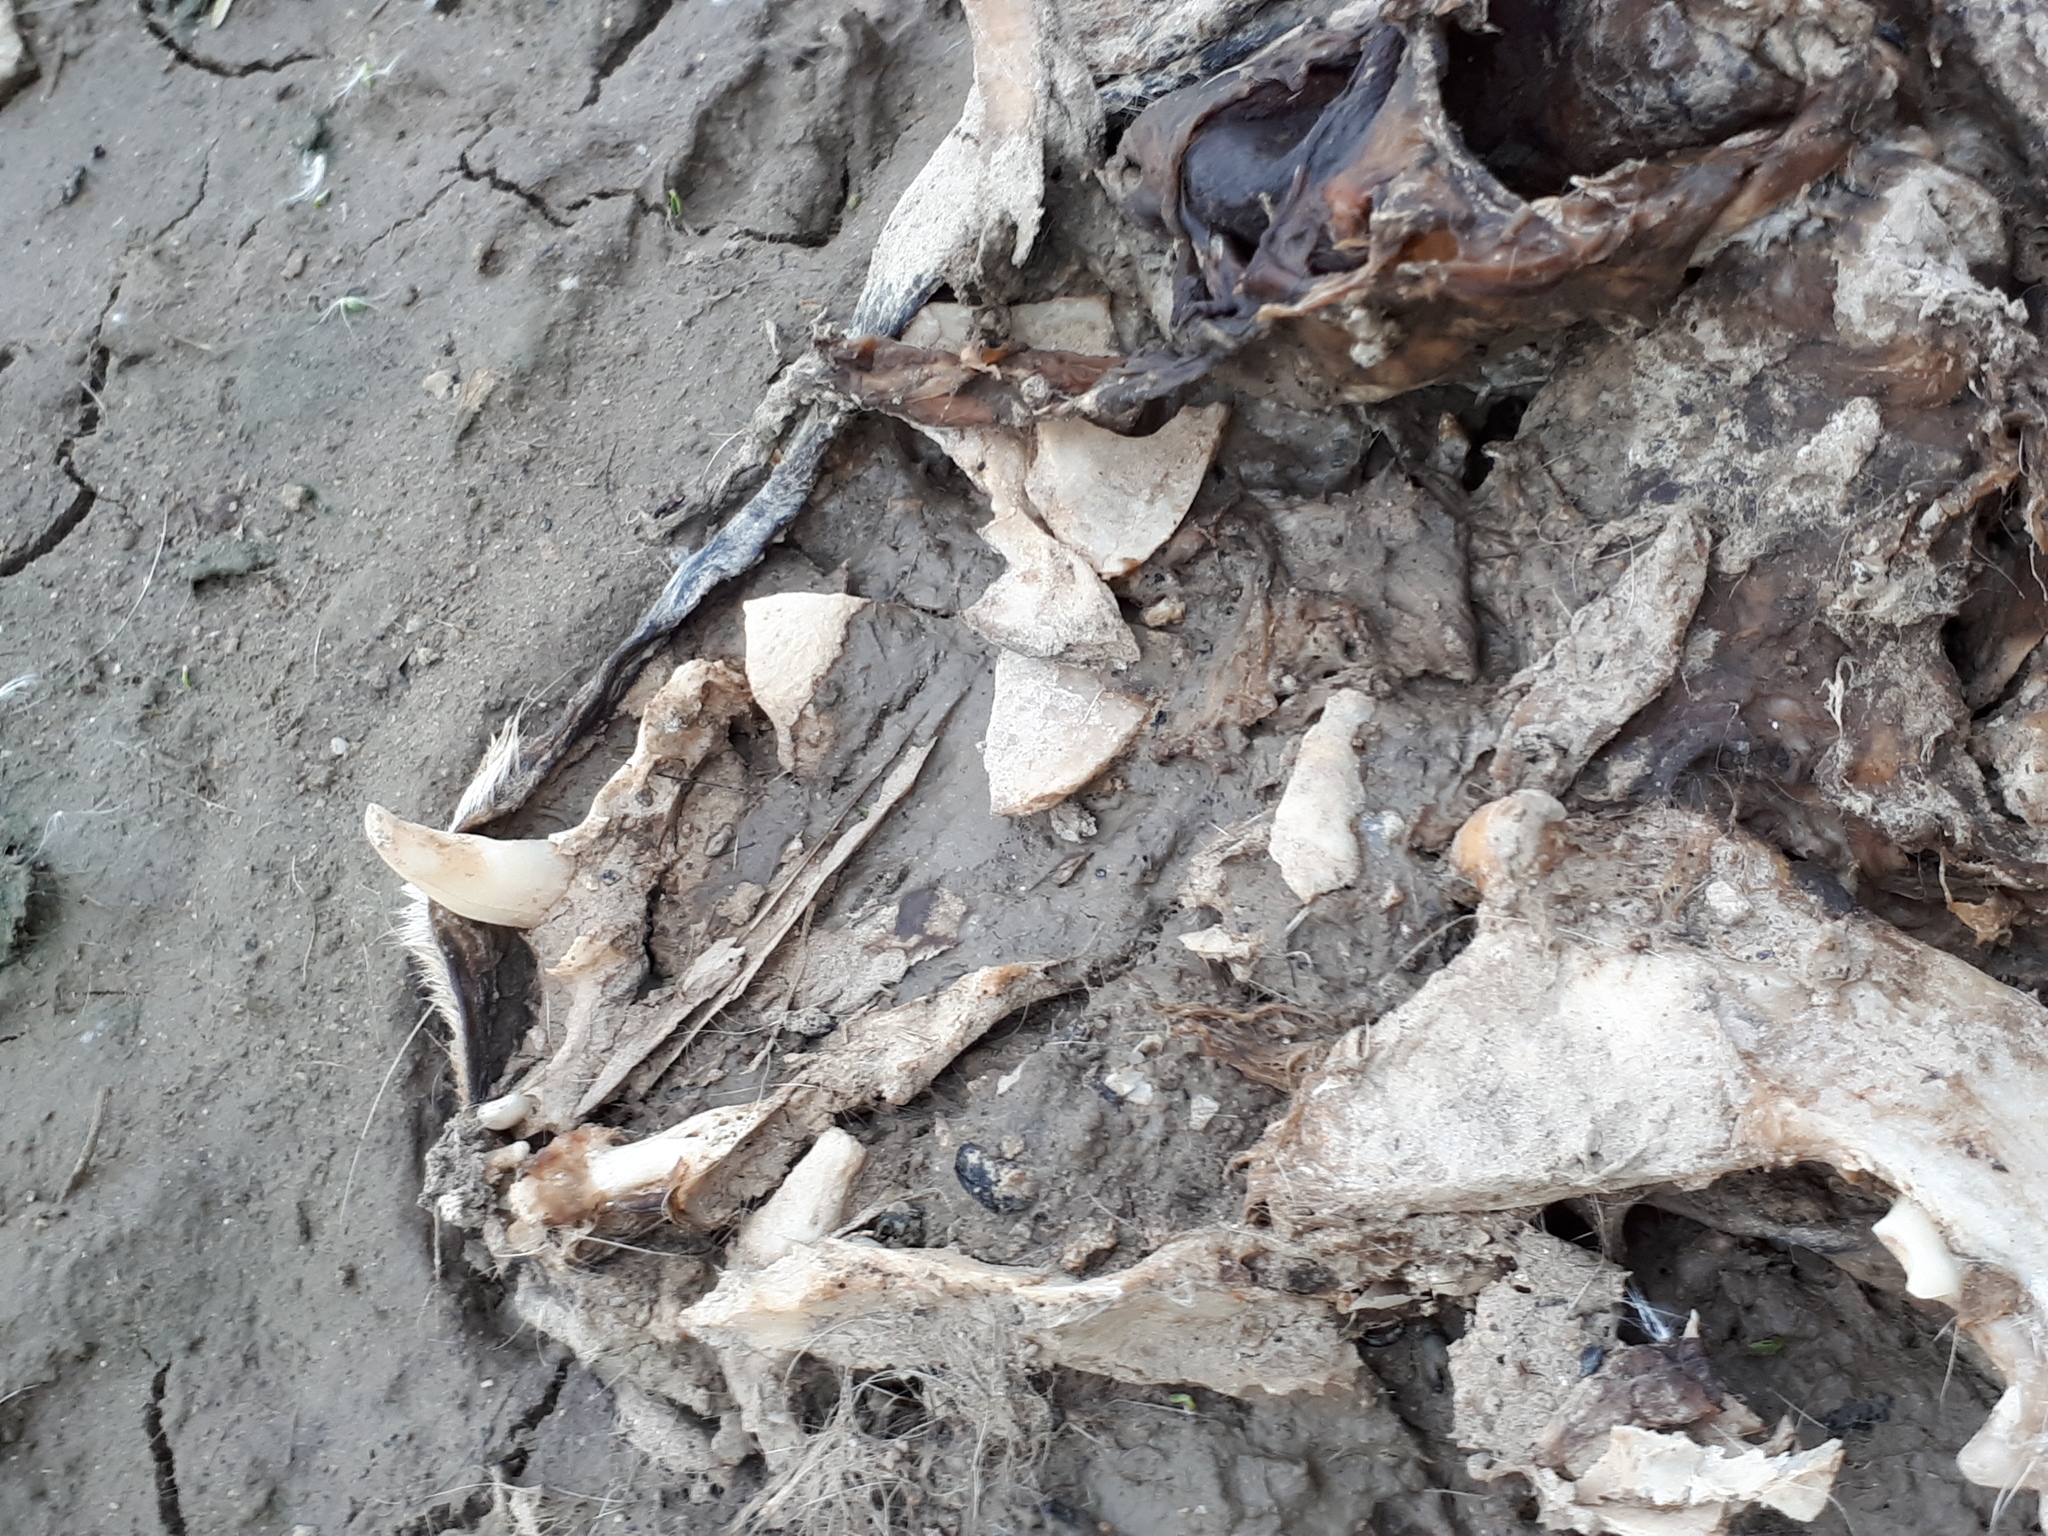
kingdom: Animalia
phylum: Chordata
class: Mammalia
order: Carnivora
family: Canidae
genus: Vulpes
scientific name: Vulpes vulpes
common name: Red fox
